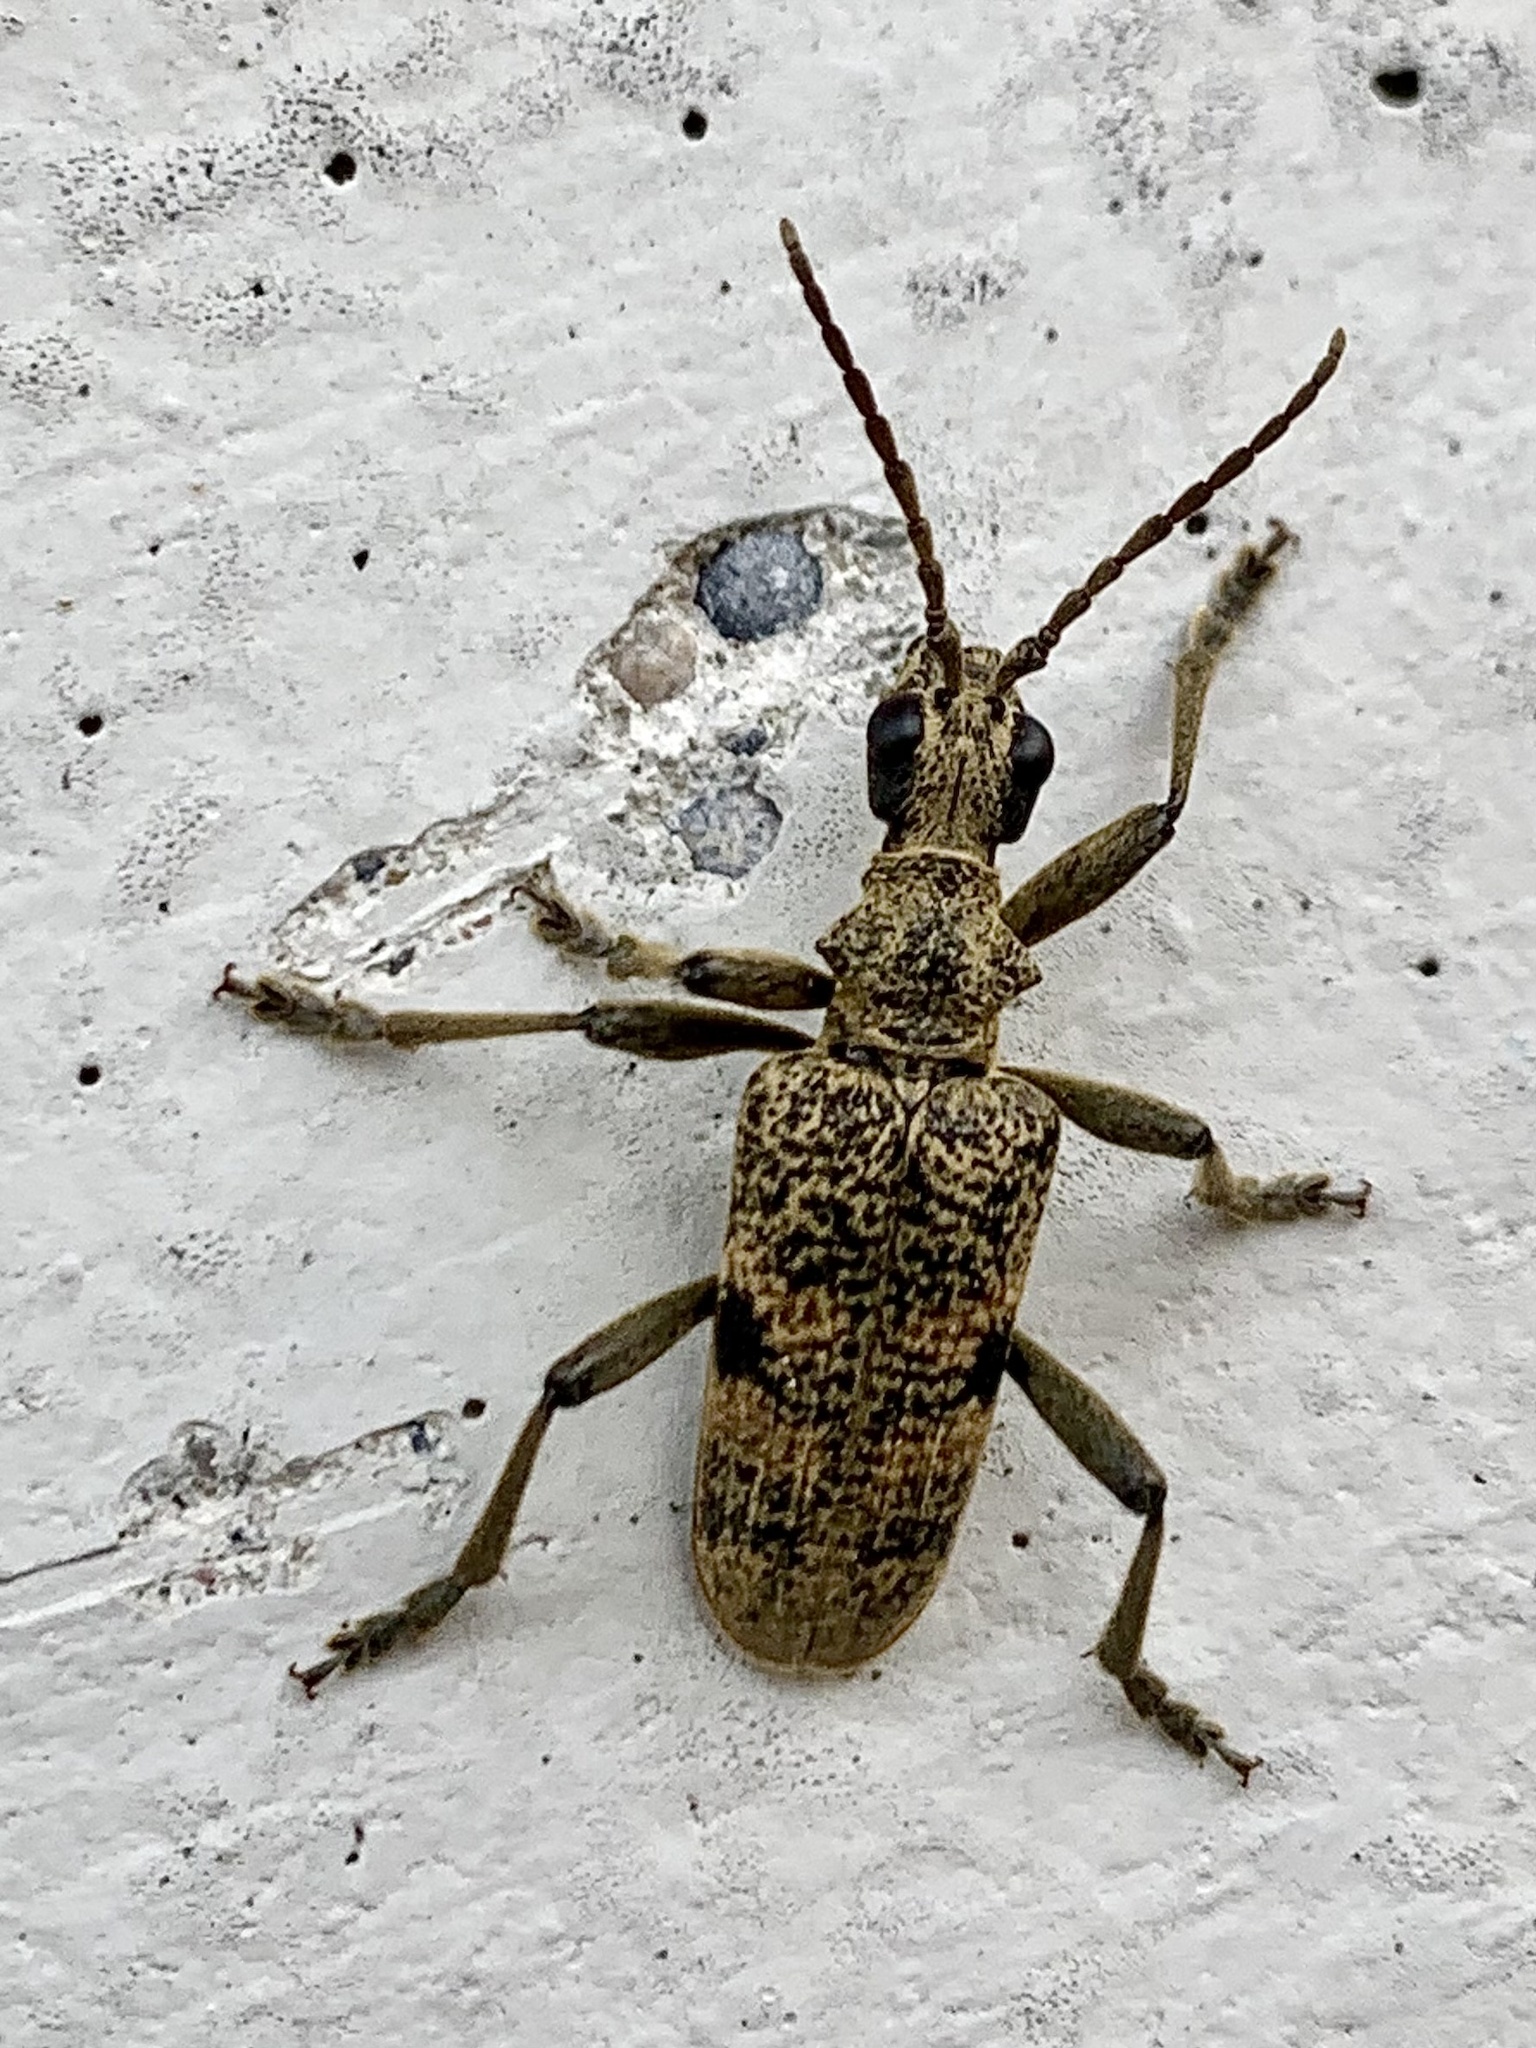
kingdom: Animalia
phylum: Arthropoda
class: Insecta
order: Coleoptera
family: Cerambycidae
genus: Rhagium
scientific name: Rhagium mordax
